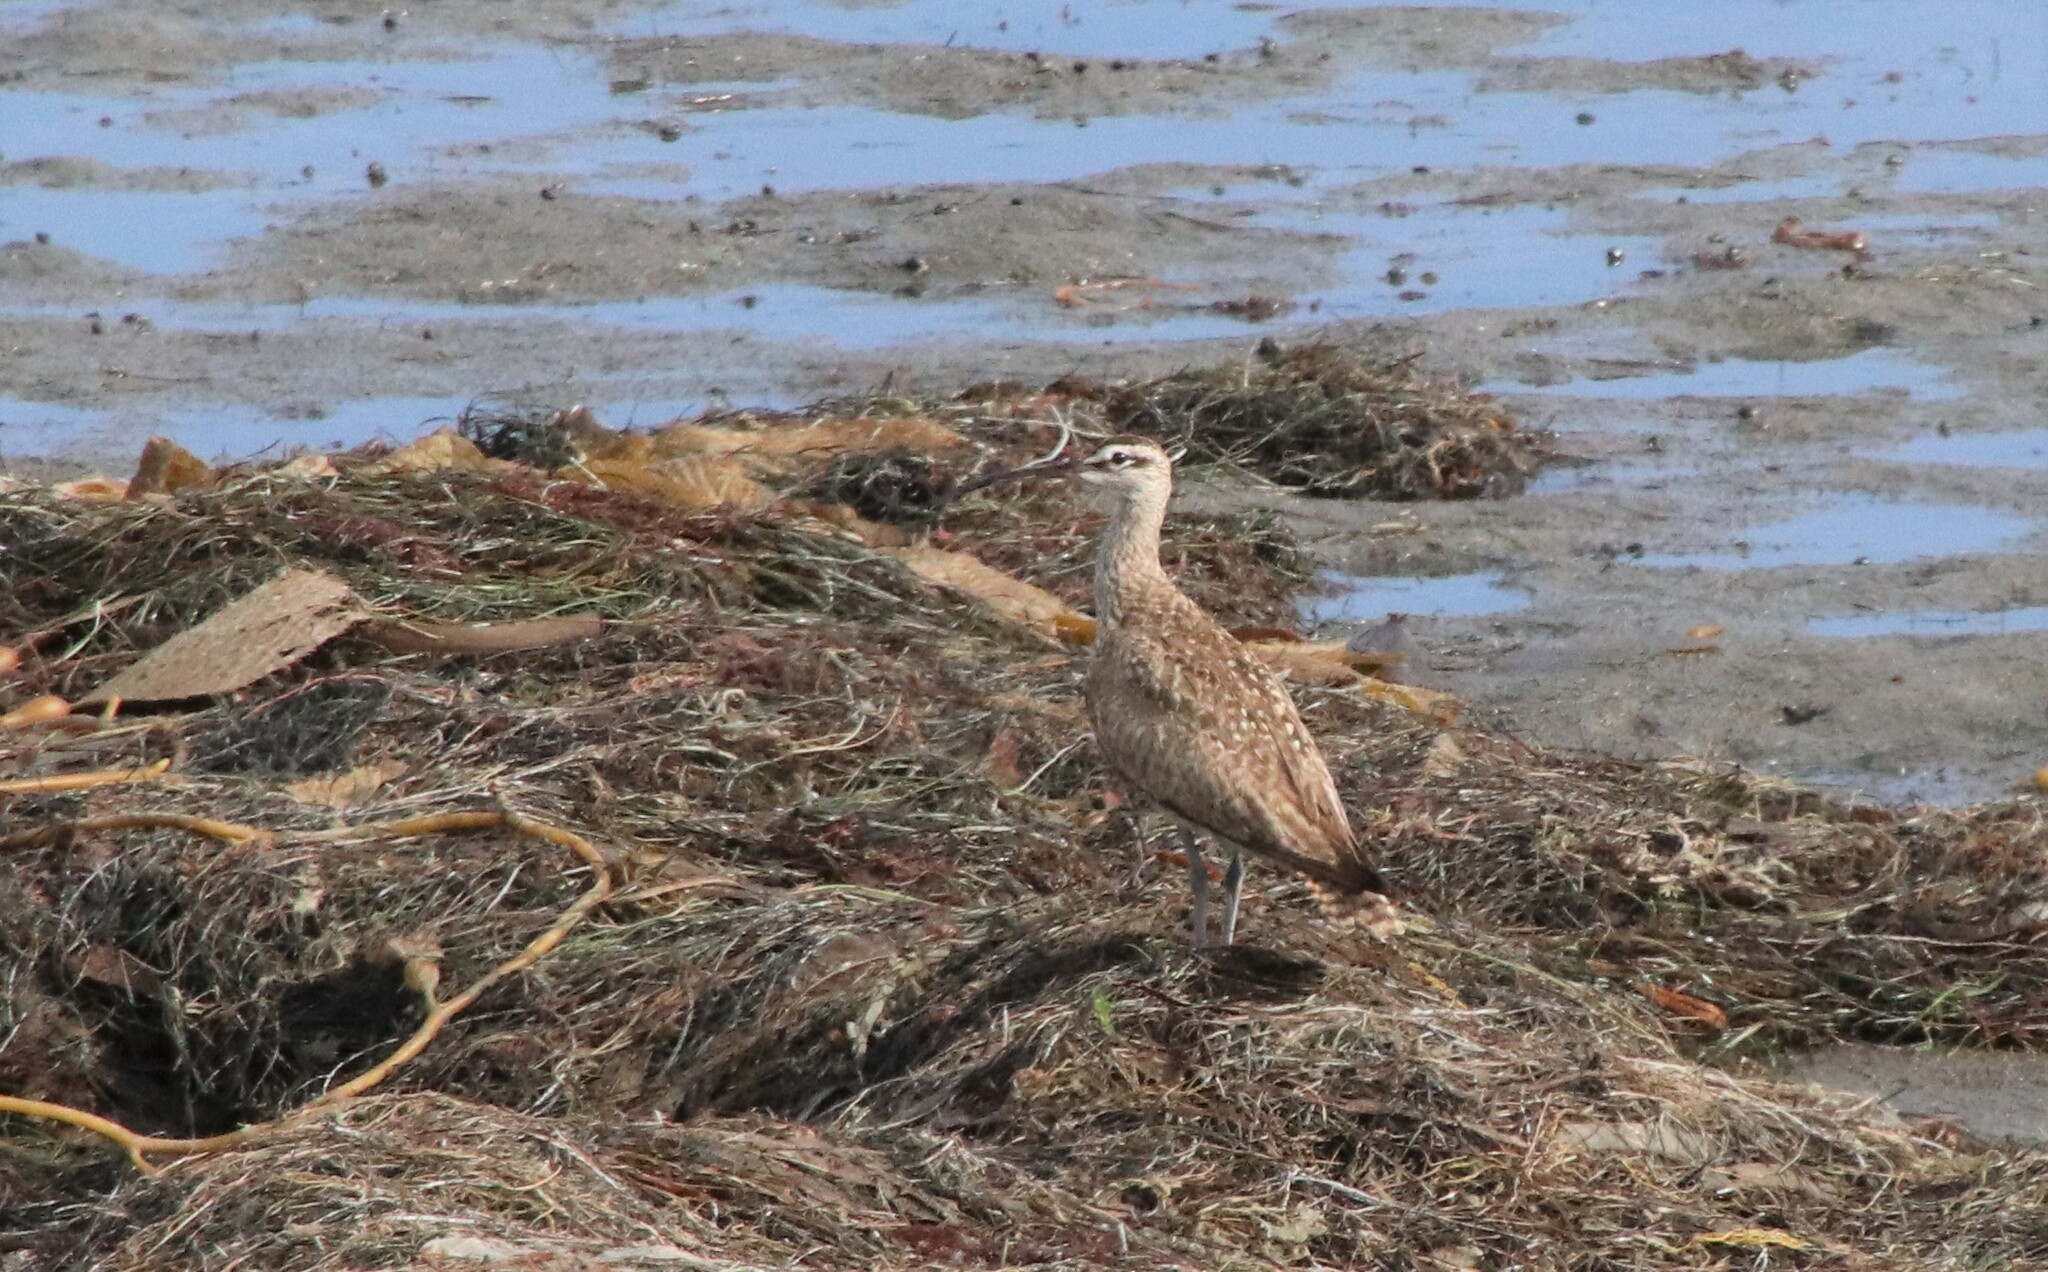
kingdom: Animalia
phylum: Chordata
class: Aves
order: Charadriiformes
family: Scolopacidae
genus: Numenius
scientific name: Numenius phaeopus
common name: Whimbrel
